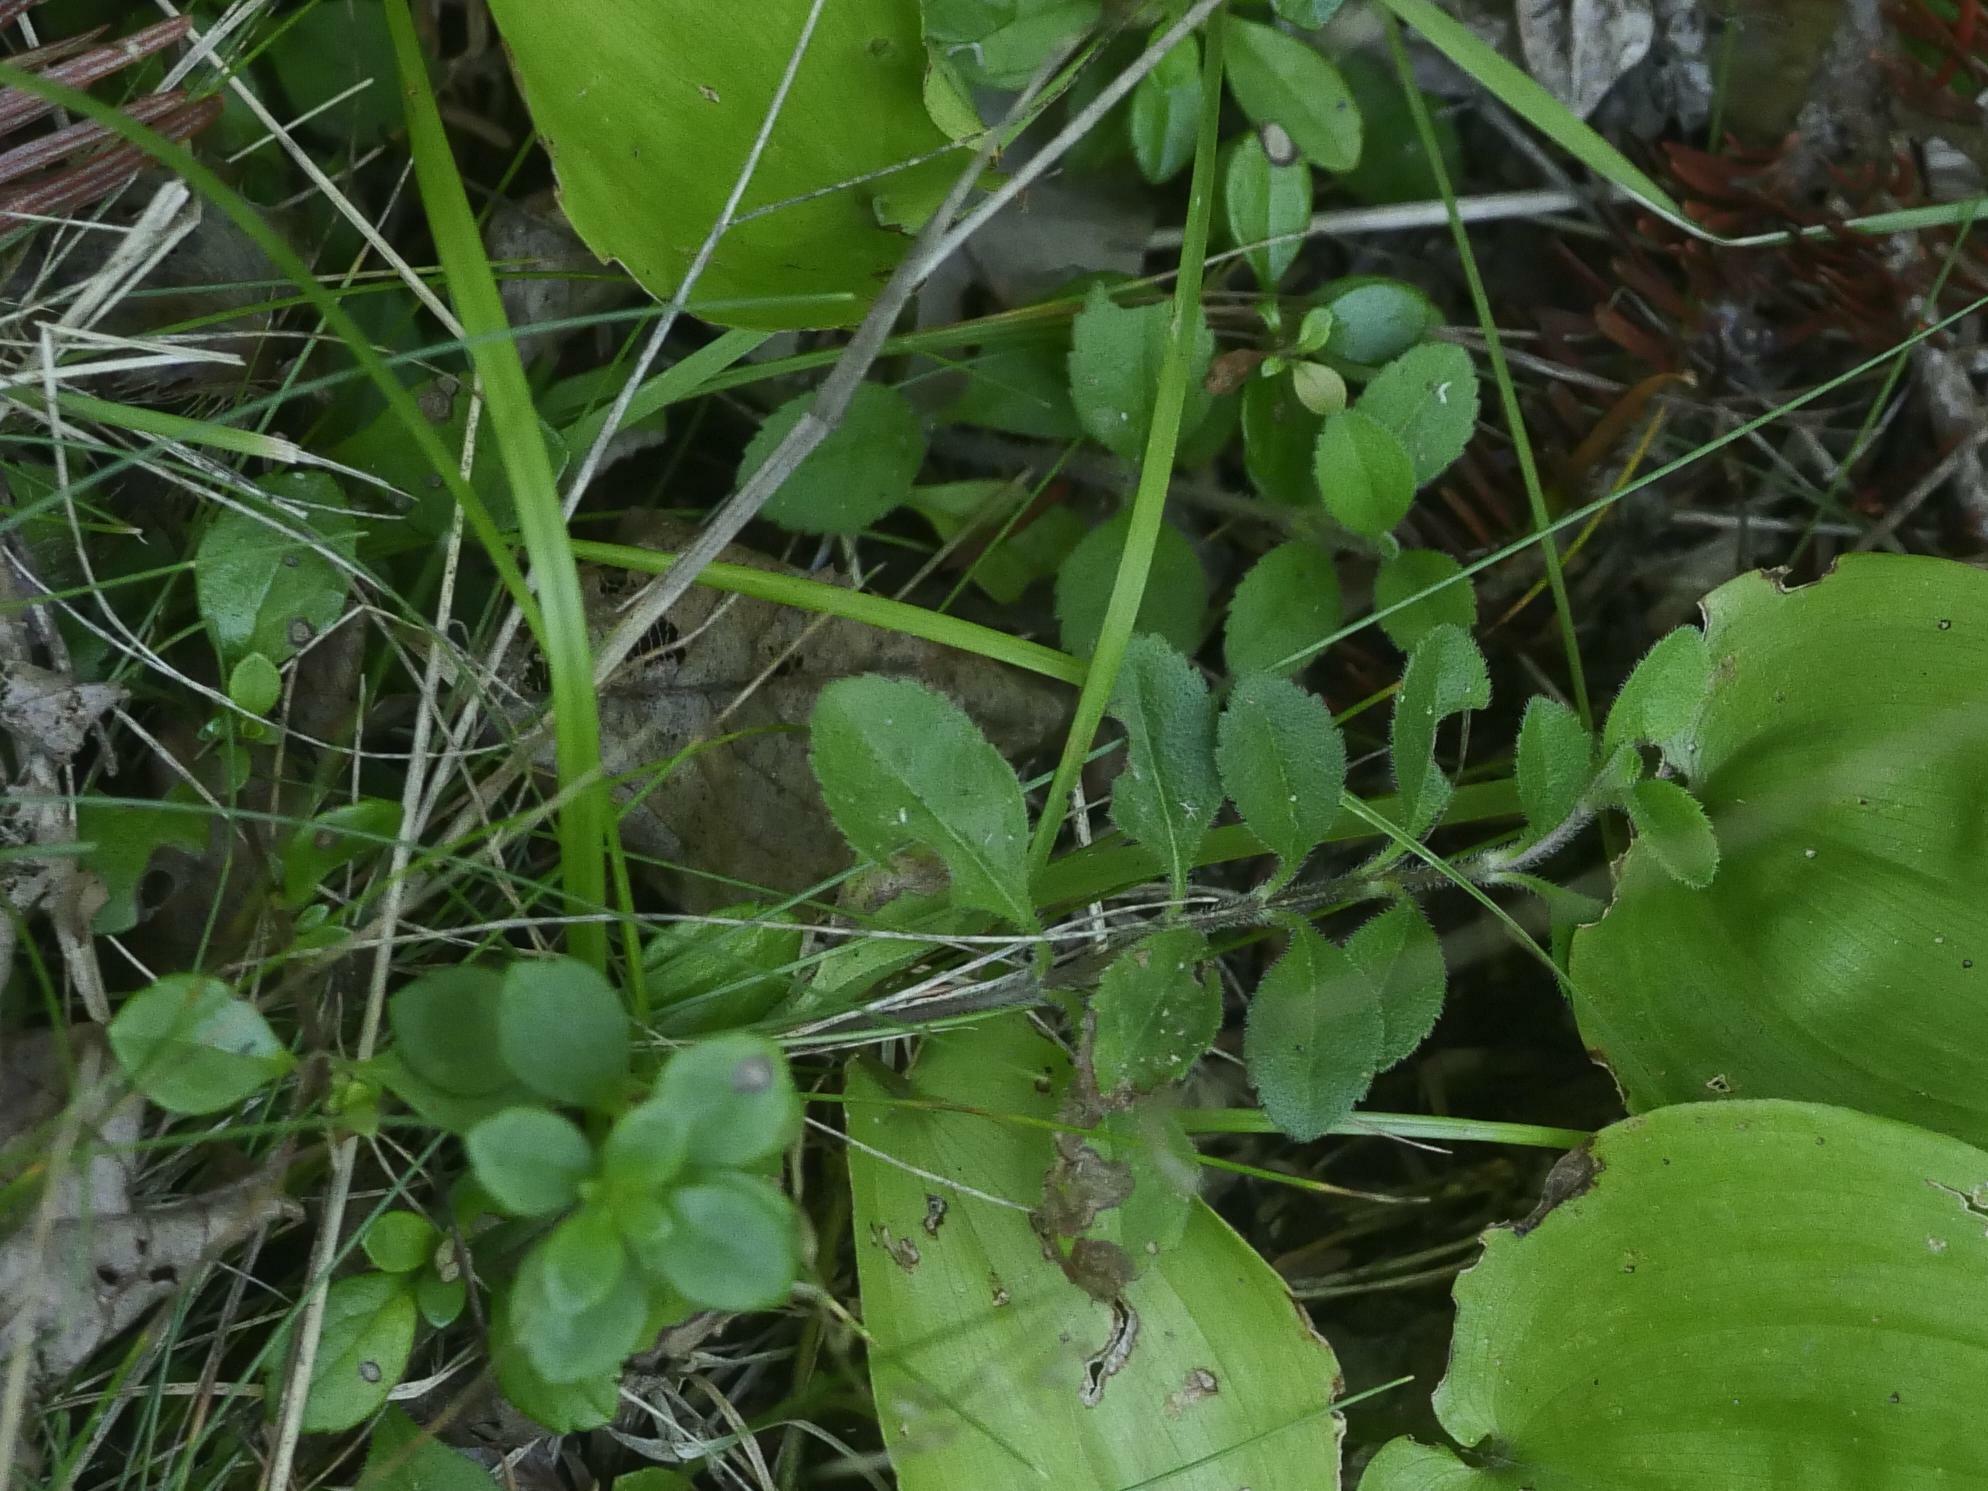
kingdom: Plantae
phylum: Tracheophyta
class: Magnoliopsida
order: Lamiales
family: Plantaginaceae
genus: Veronica
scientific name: Veronica officinalis
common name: Common speedwell
